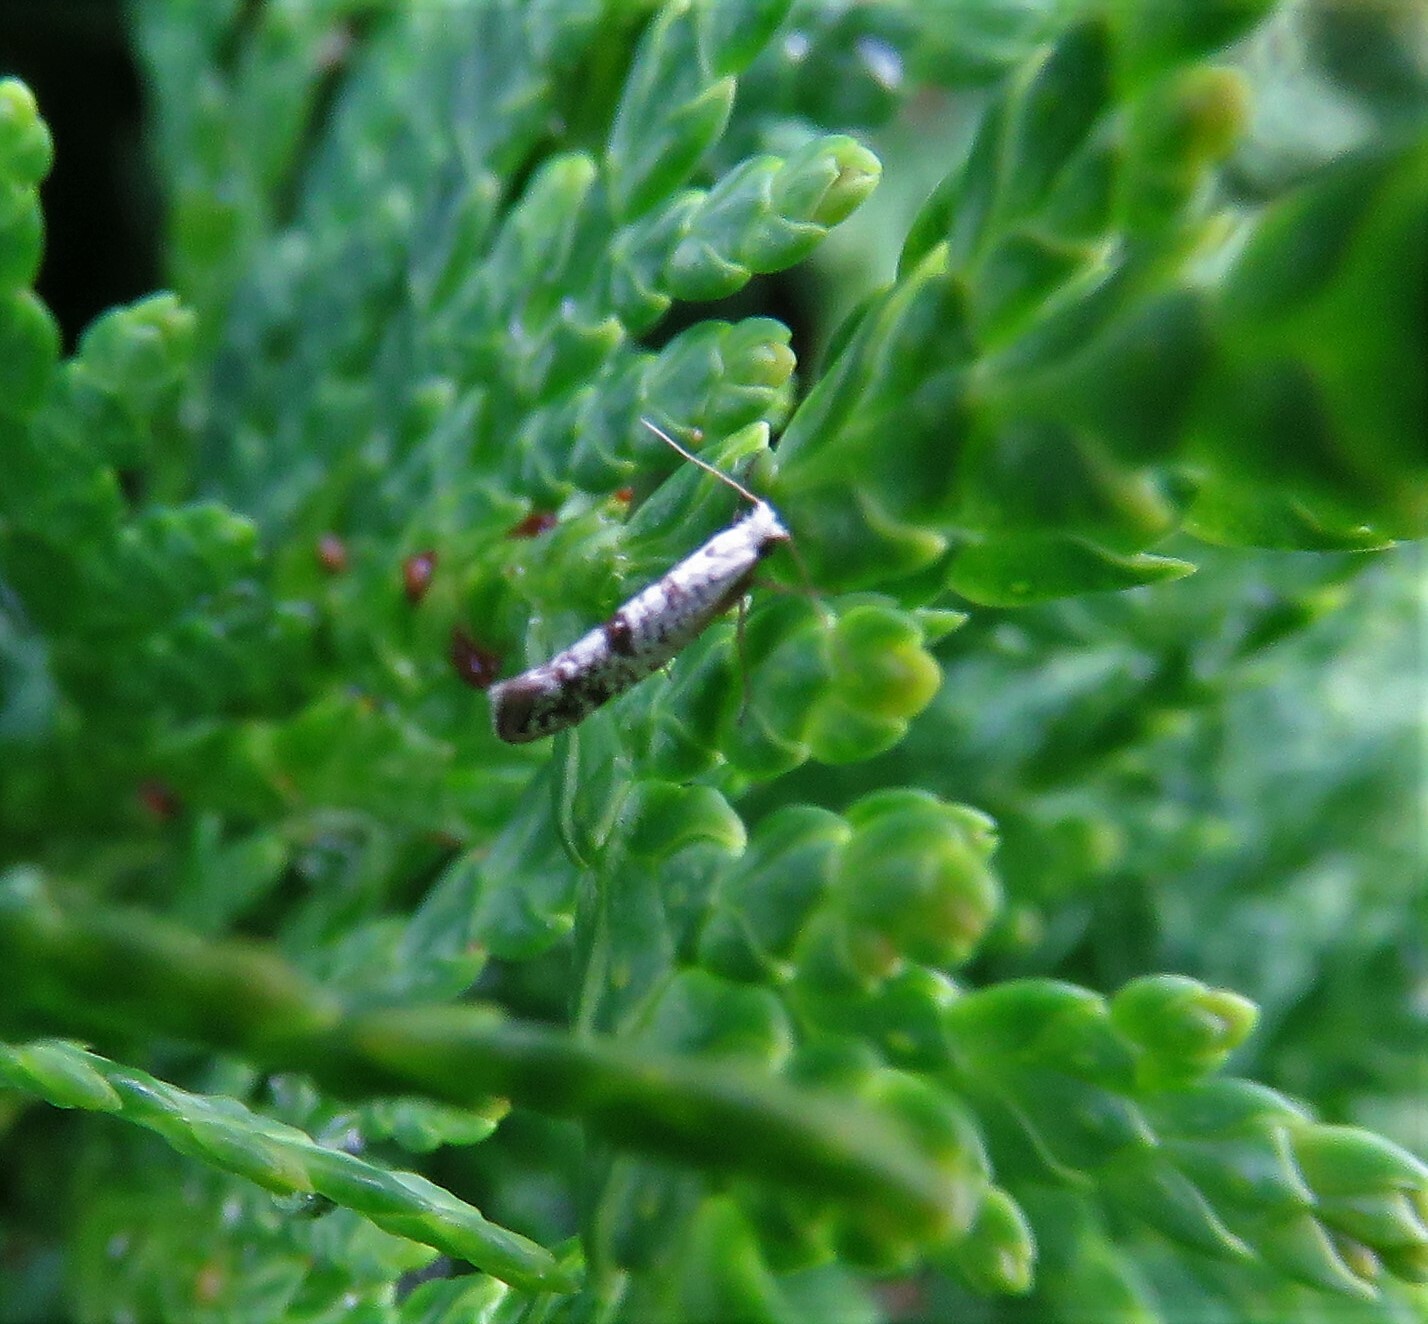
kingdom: Animalia
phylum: Arthropoda
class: Insecta
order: Lepidoptera
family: Argyresthiidae
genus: Argyresthia
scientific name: Argyresthia thuiella
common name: Arborvitae leafminer
